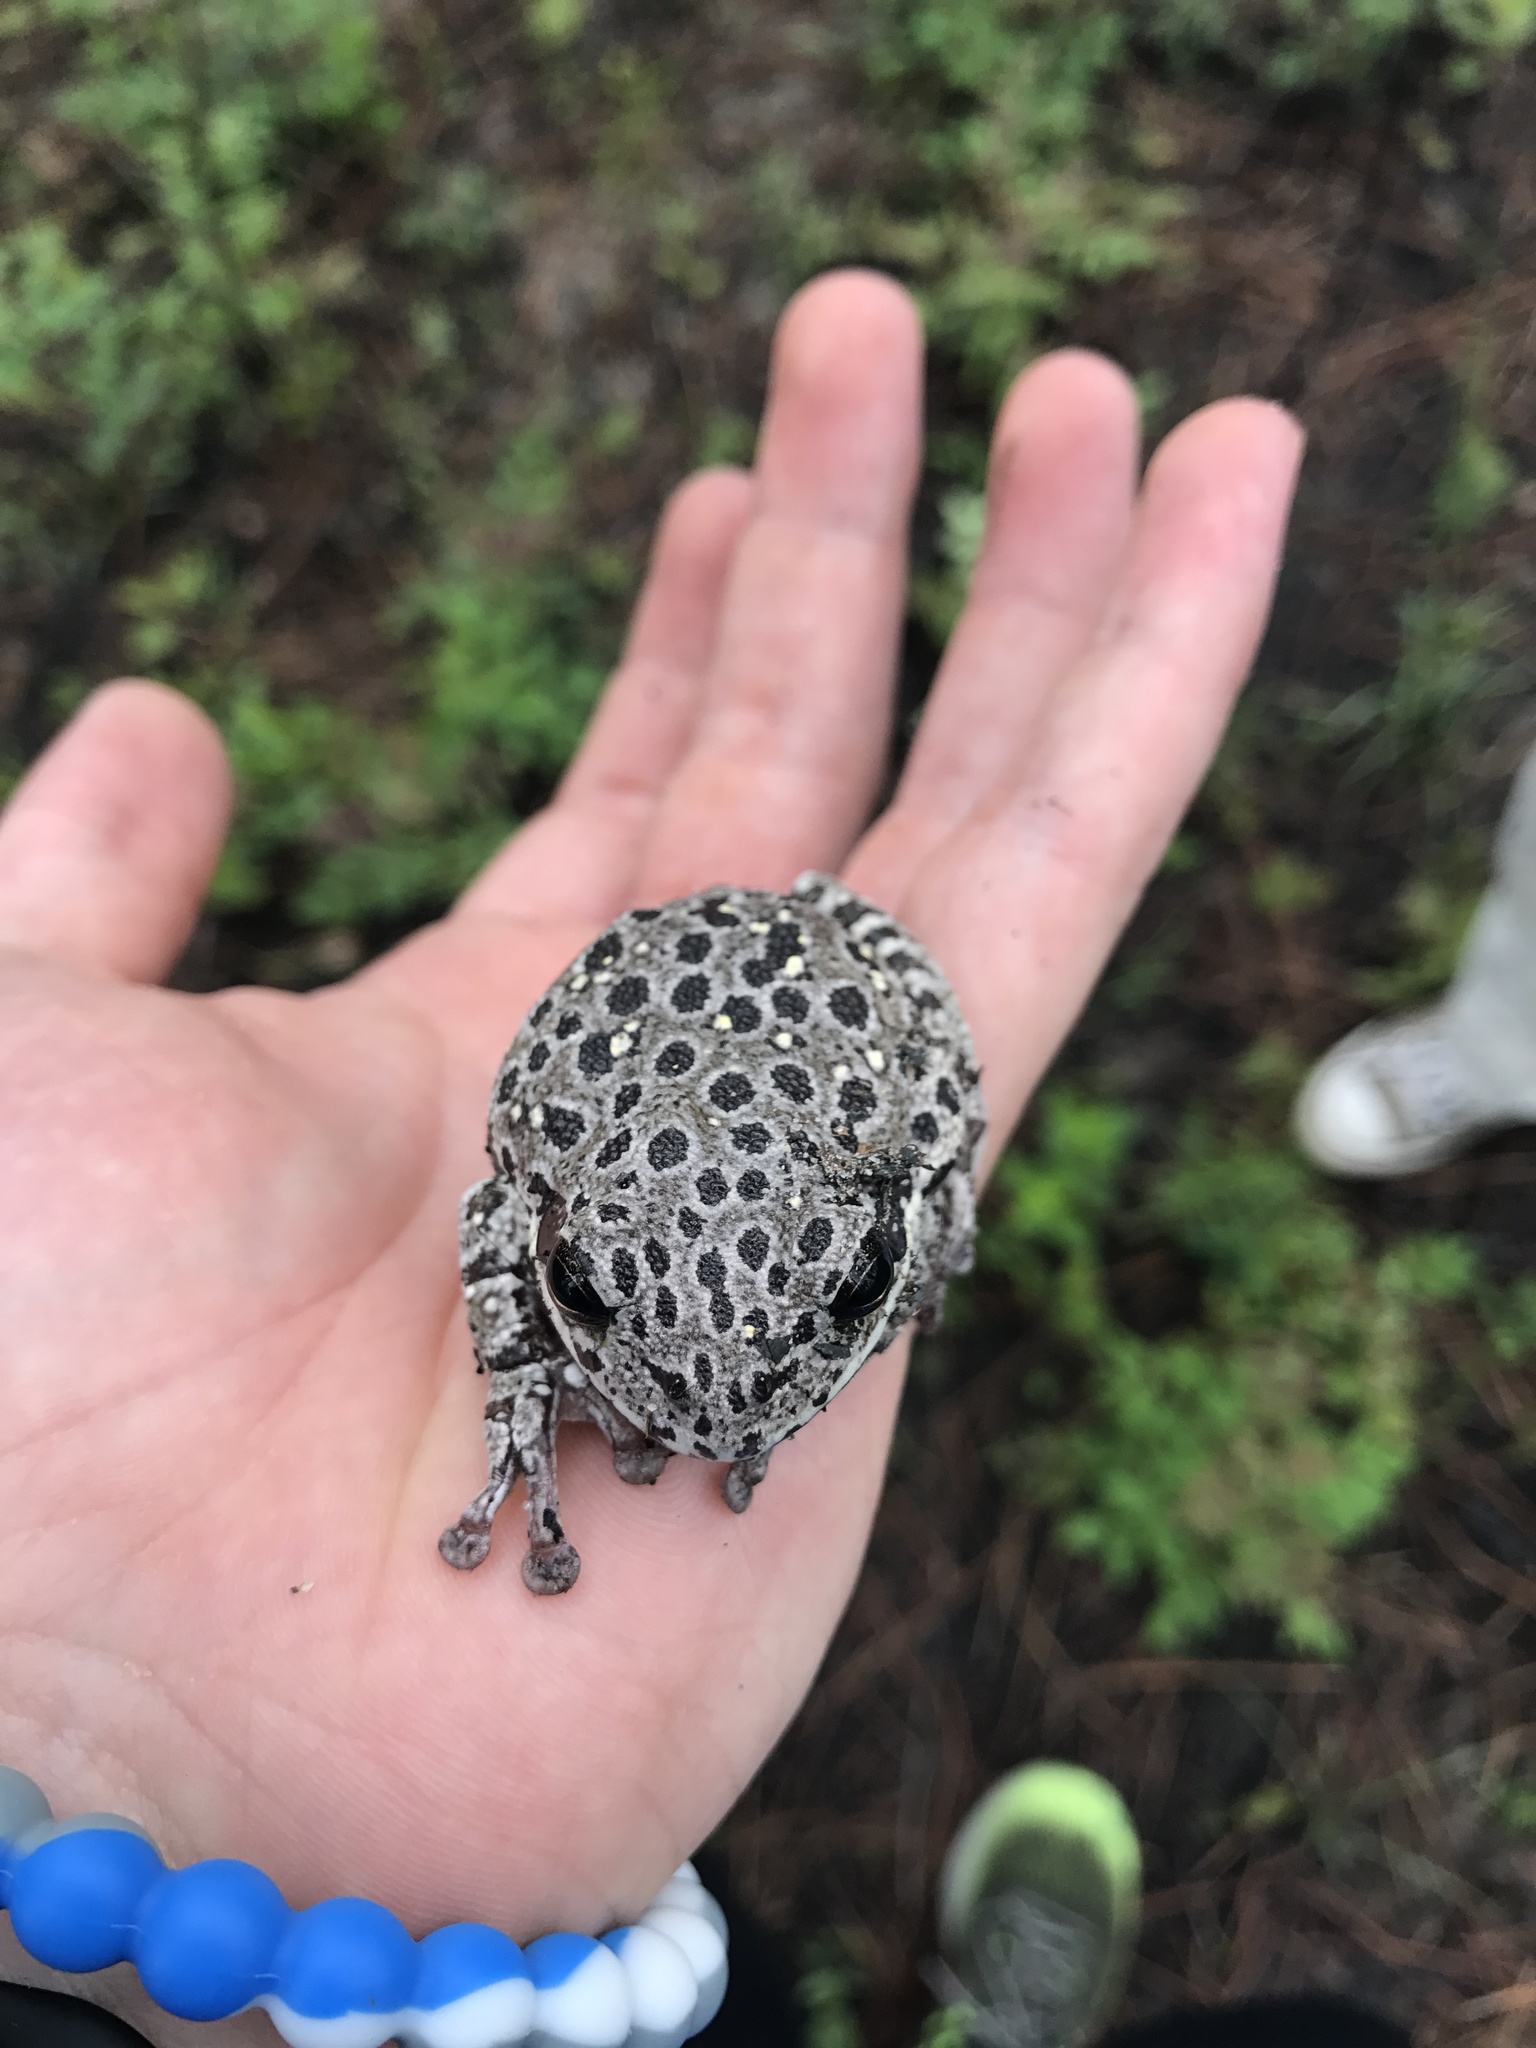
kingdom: Animalia
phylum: Chordata
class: Amphibia
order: Anura
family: Hylidae
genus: Dryophytes
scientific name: Dryophytes gratiosus
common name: Barking treefrog
